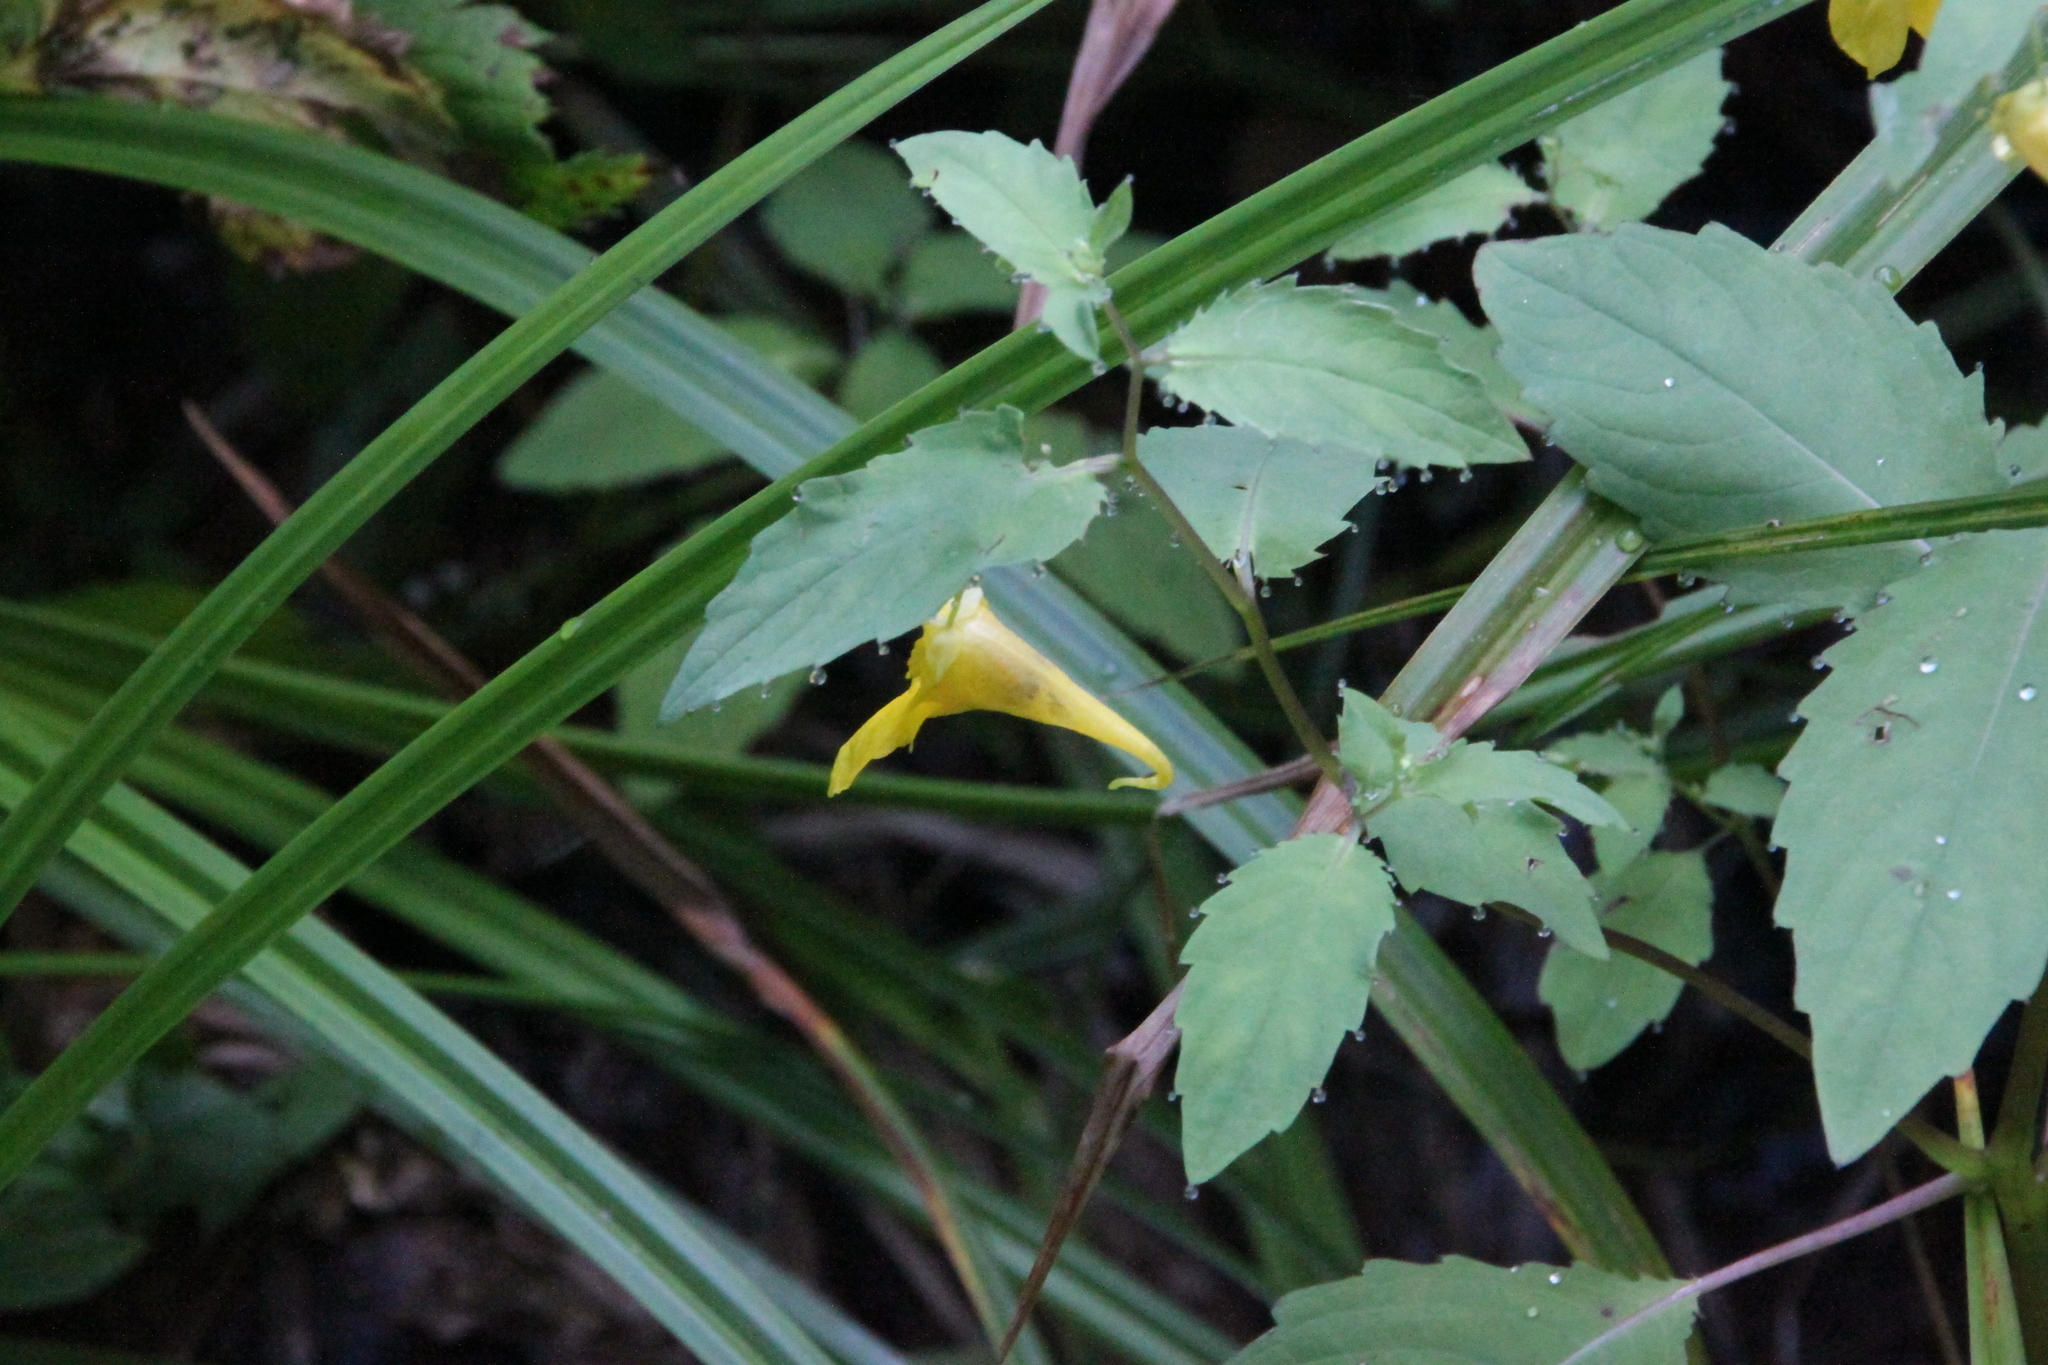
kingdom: Plantae
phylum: Tracheophyta
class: Magnoliopsida
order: Ericales
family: Balsaminaceae
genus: Impatiens
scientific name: Impatiens noli-tangere
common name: Touch-me-not balsam
